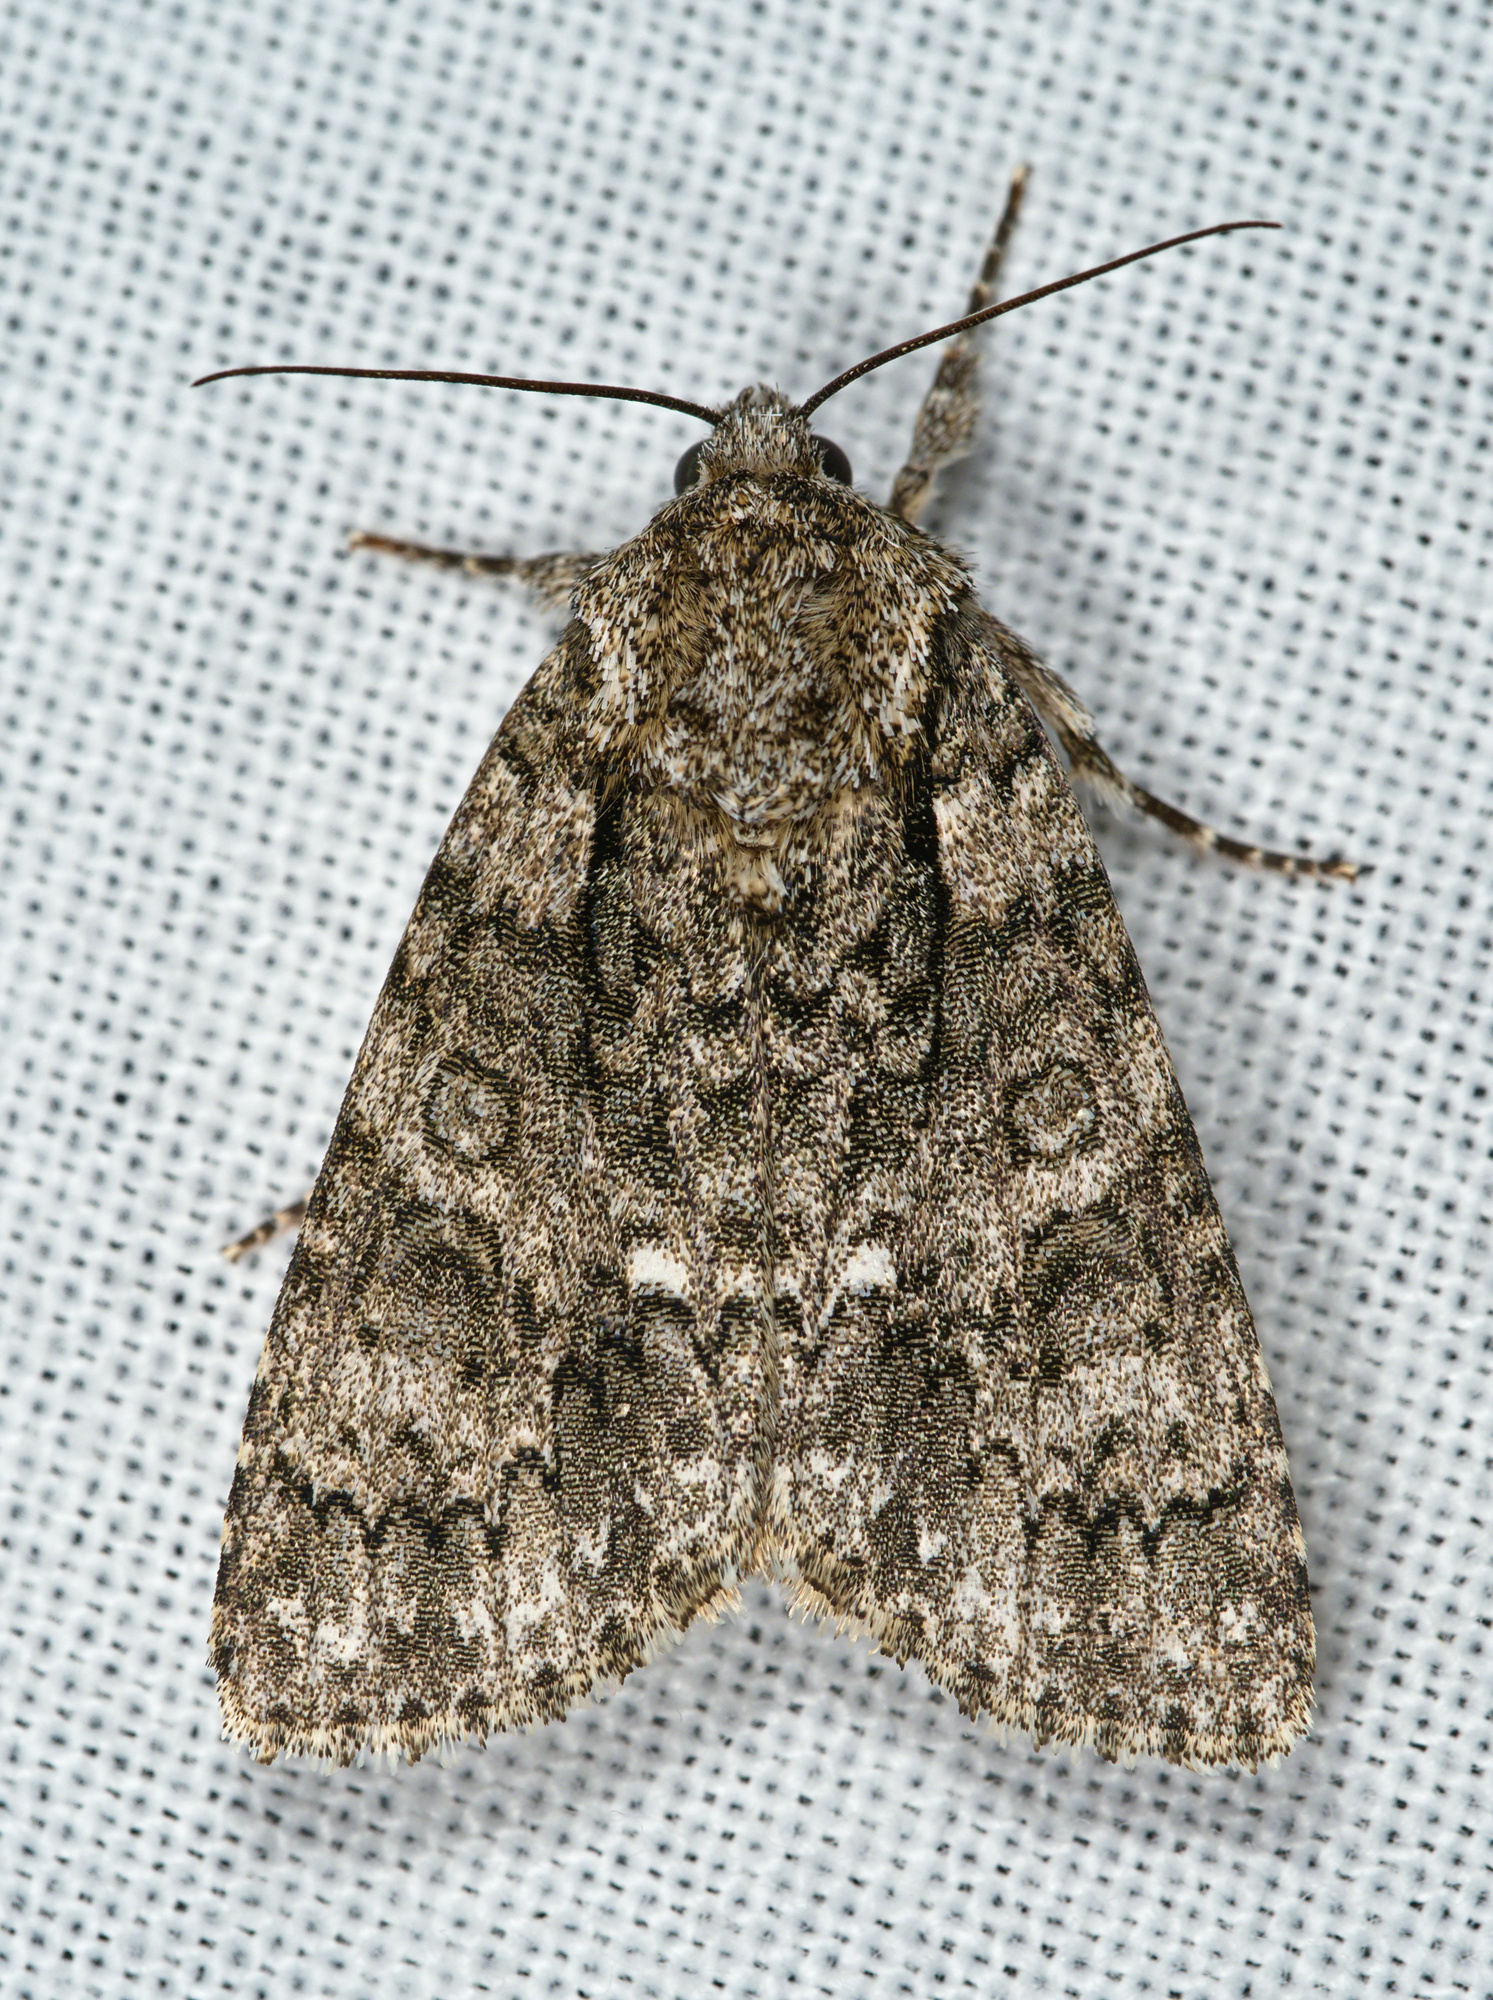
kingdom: Animalia
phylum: Arthropoda
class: Insecta
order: Lepidoptera
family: Noctuidae
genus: Acronicta
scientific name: Acronicta rumicis
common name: Knot grass
